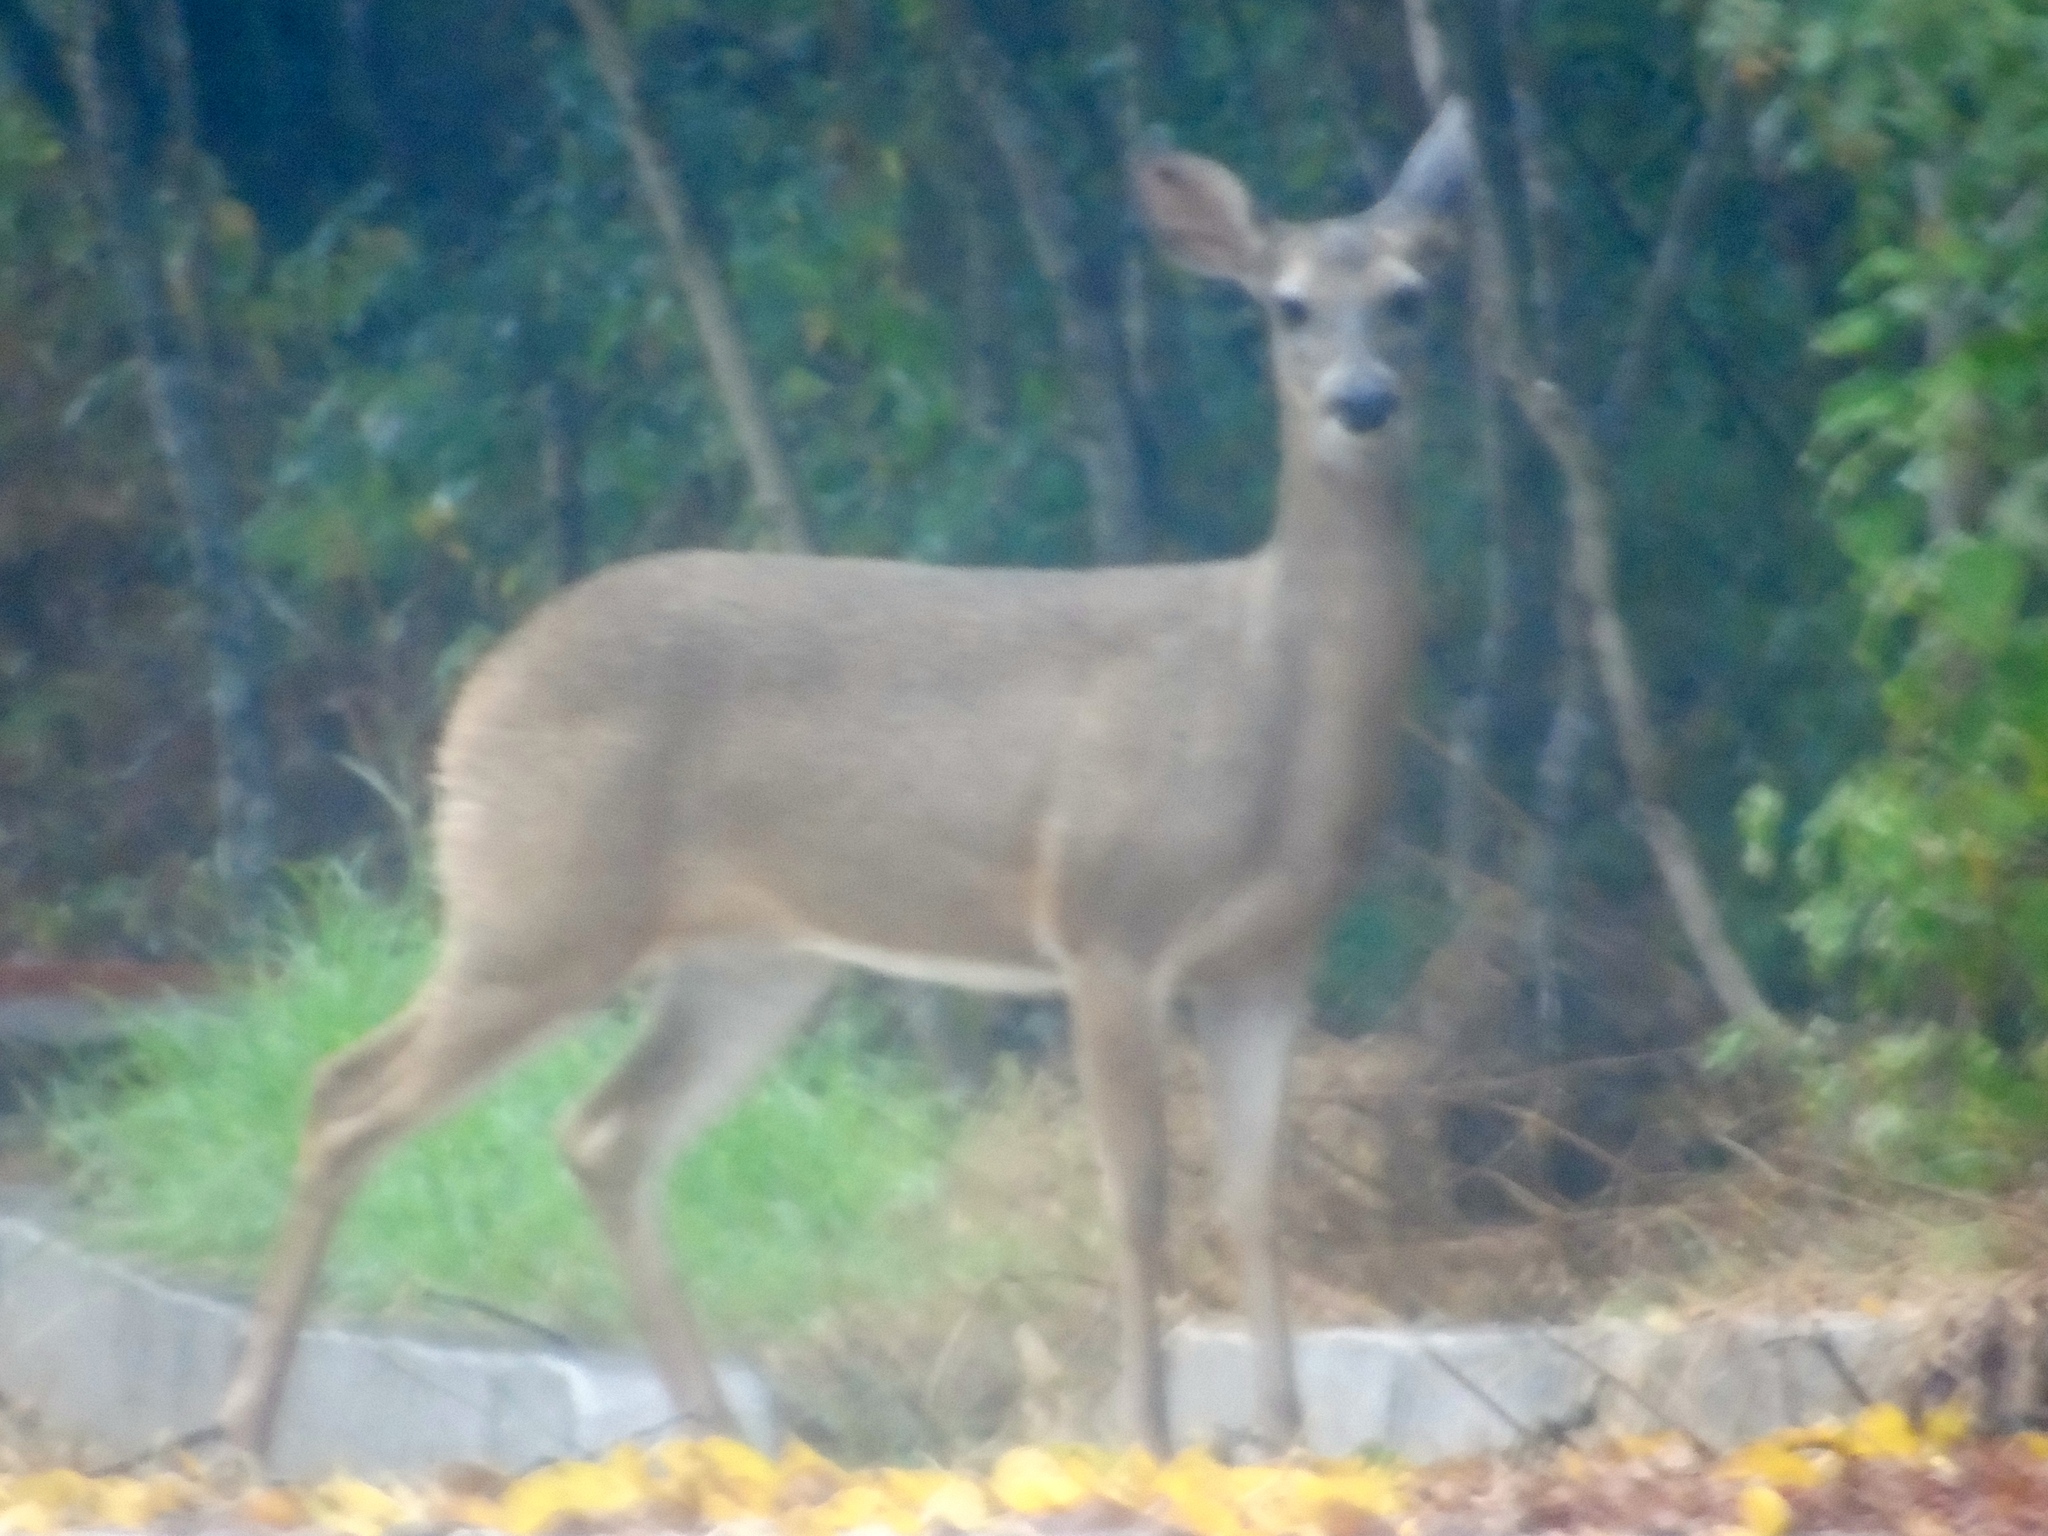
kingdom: Animalia
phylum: Chordata
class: Mammalia
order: Artiodactyla
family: Cervidae
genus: Odocoileus
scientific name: Odocoileus virginianus
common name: White-tailed deer
